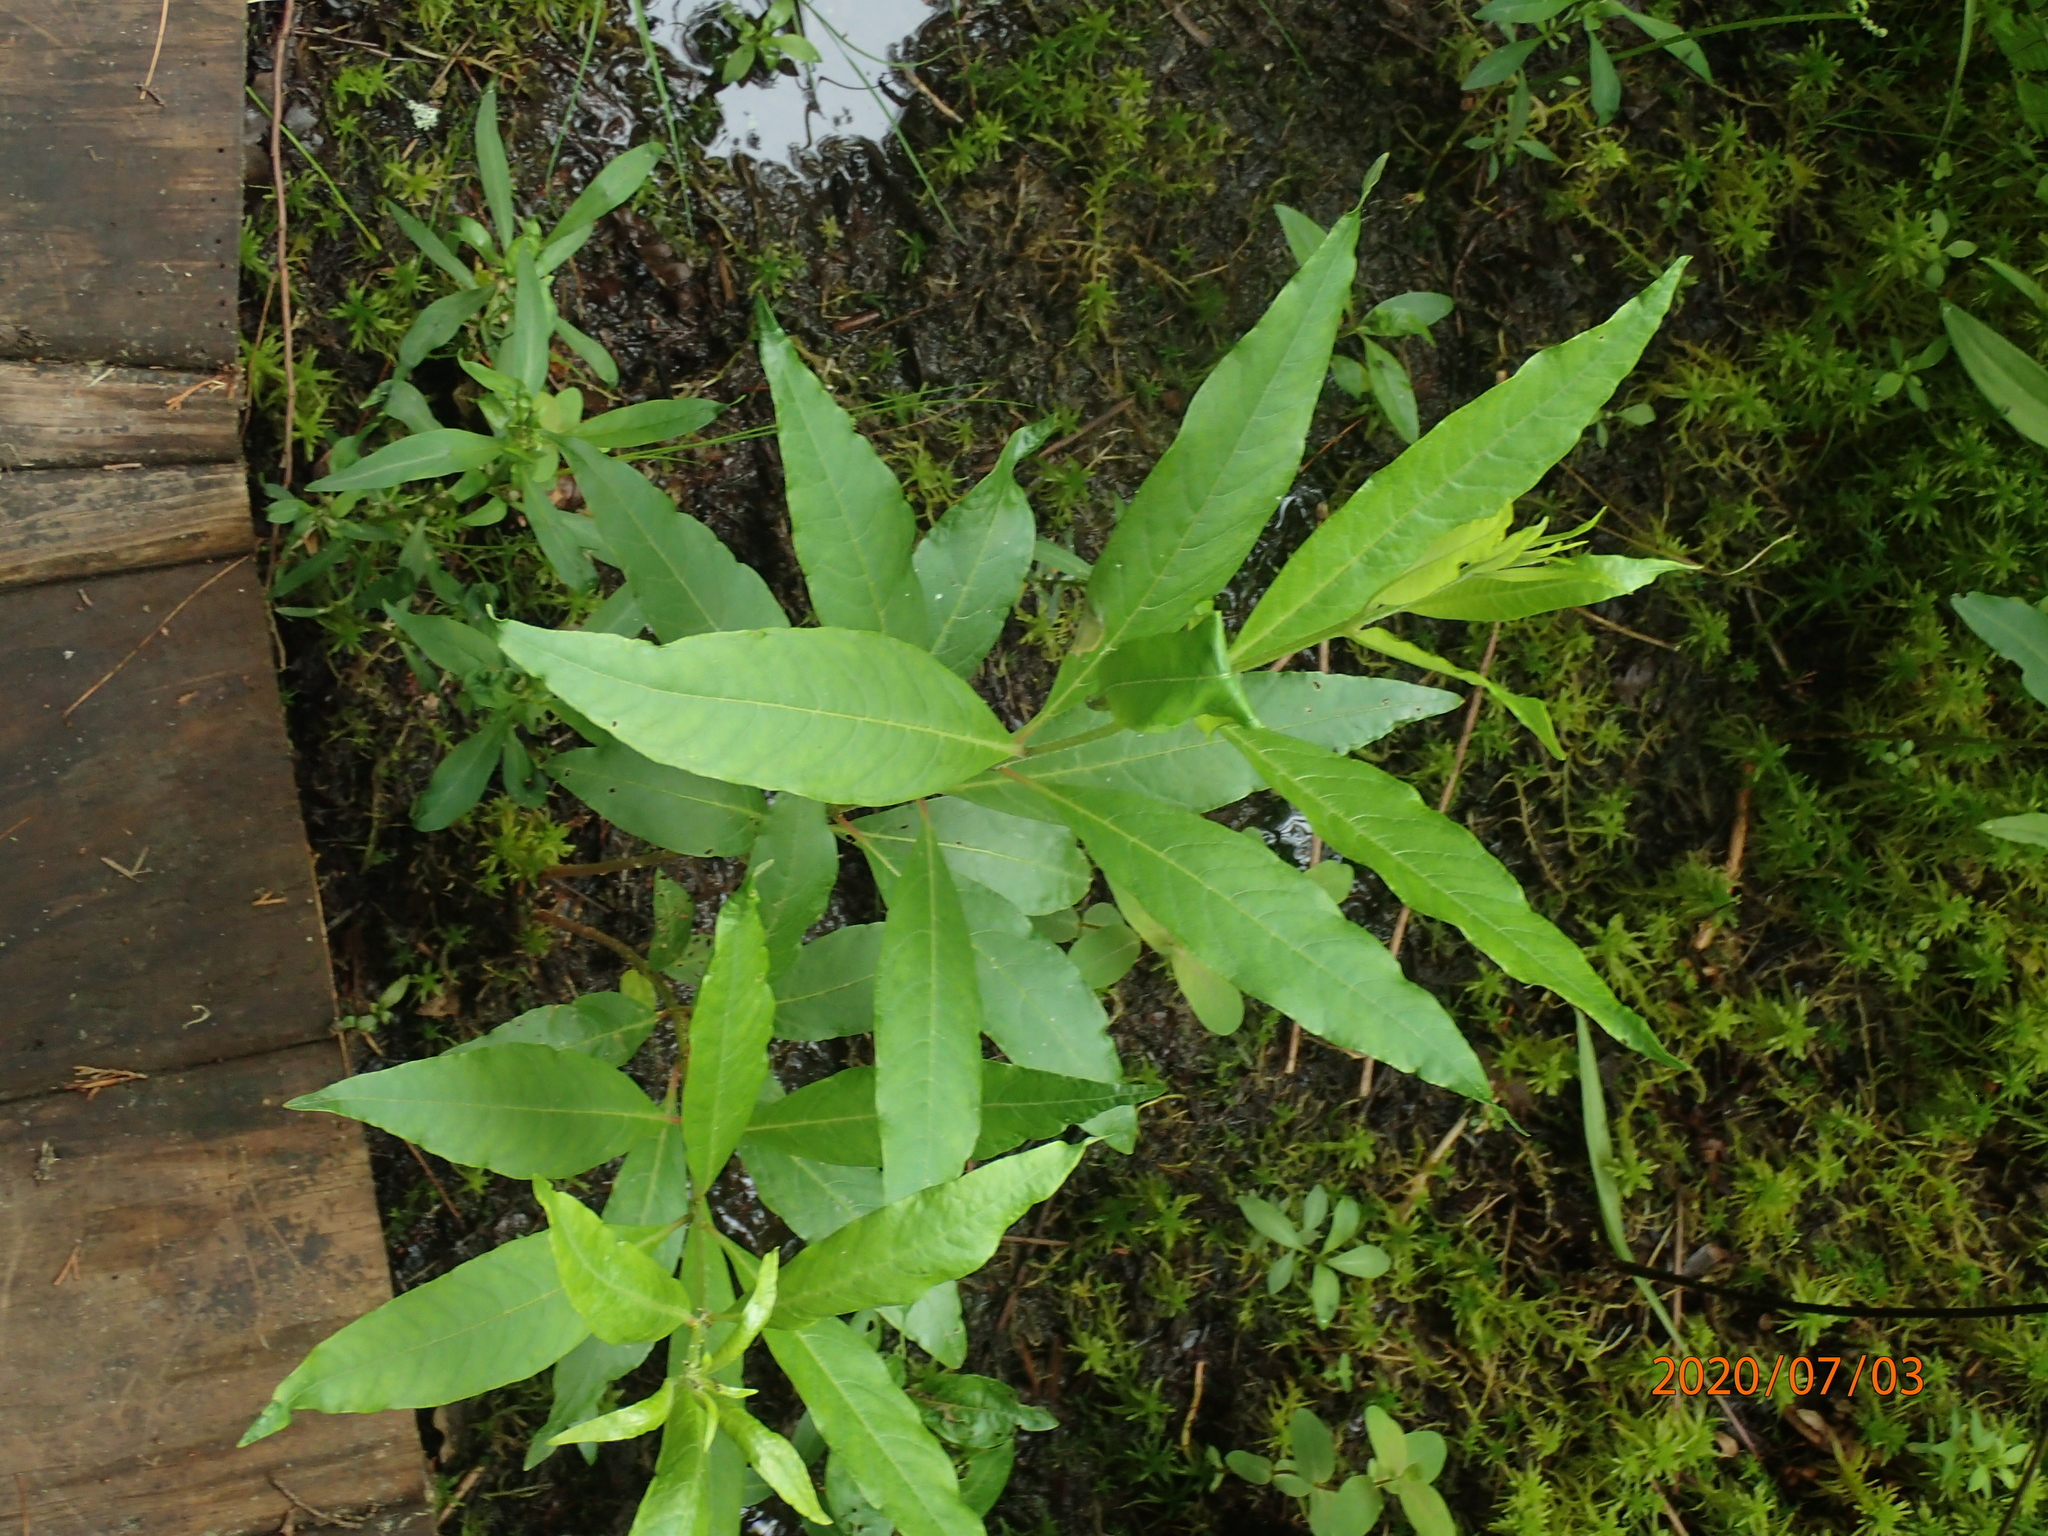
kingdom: Plantae
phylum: Tracheophyta
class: Magnoliopsida
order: Myrtales
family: Lythraceae
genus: Decodon
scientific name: Decodon verticillatus
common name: Hairy swamp loosestrife
